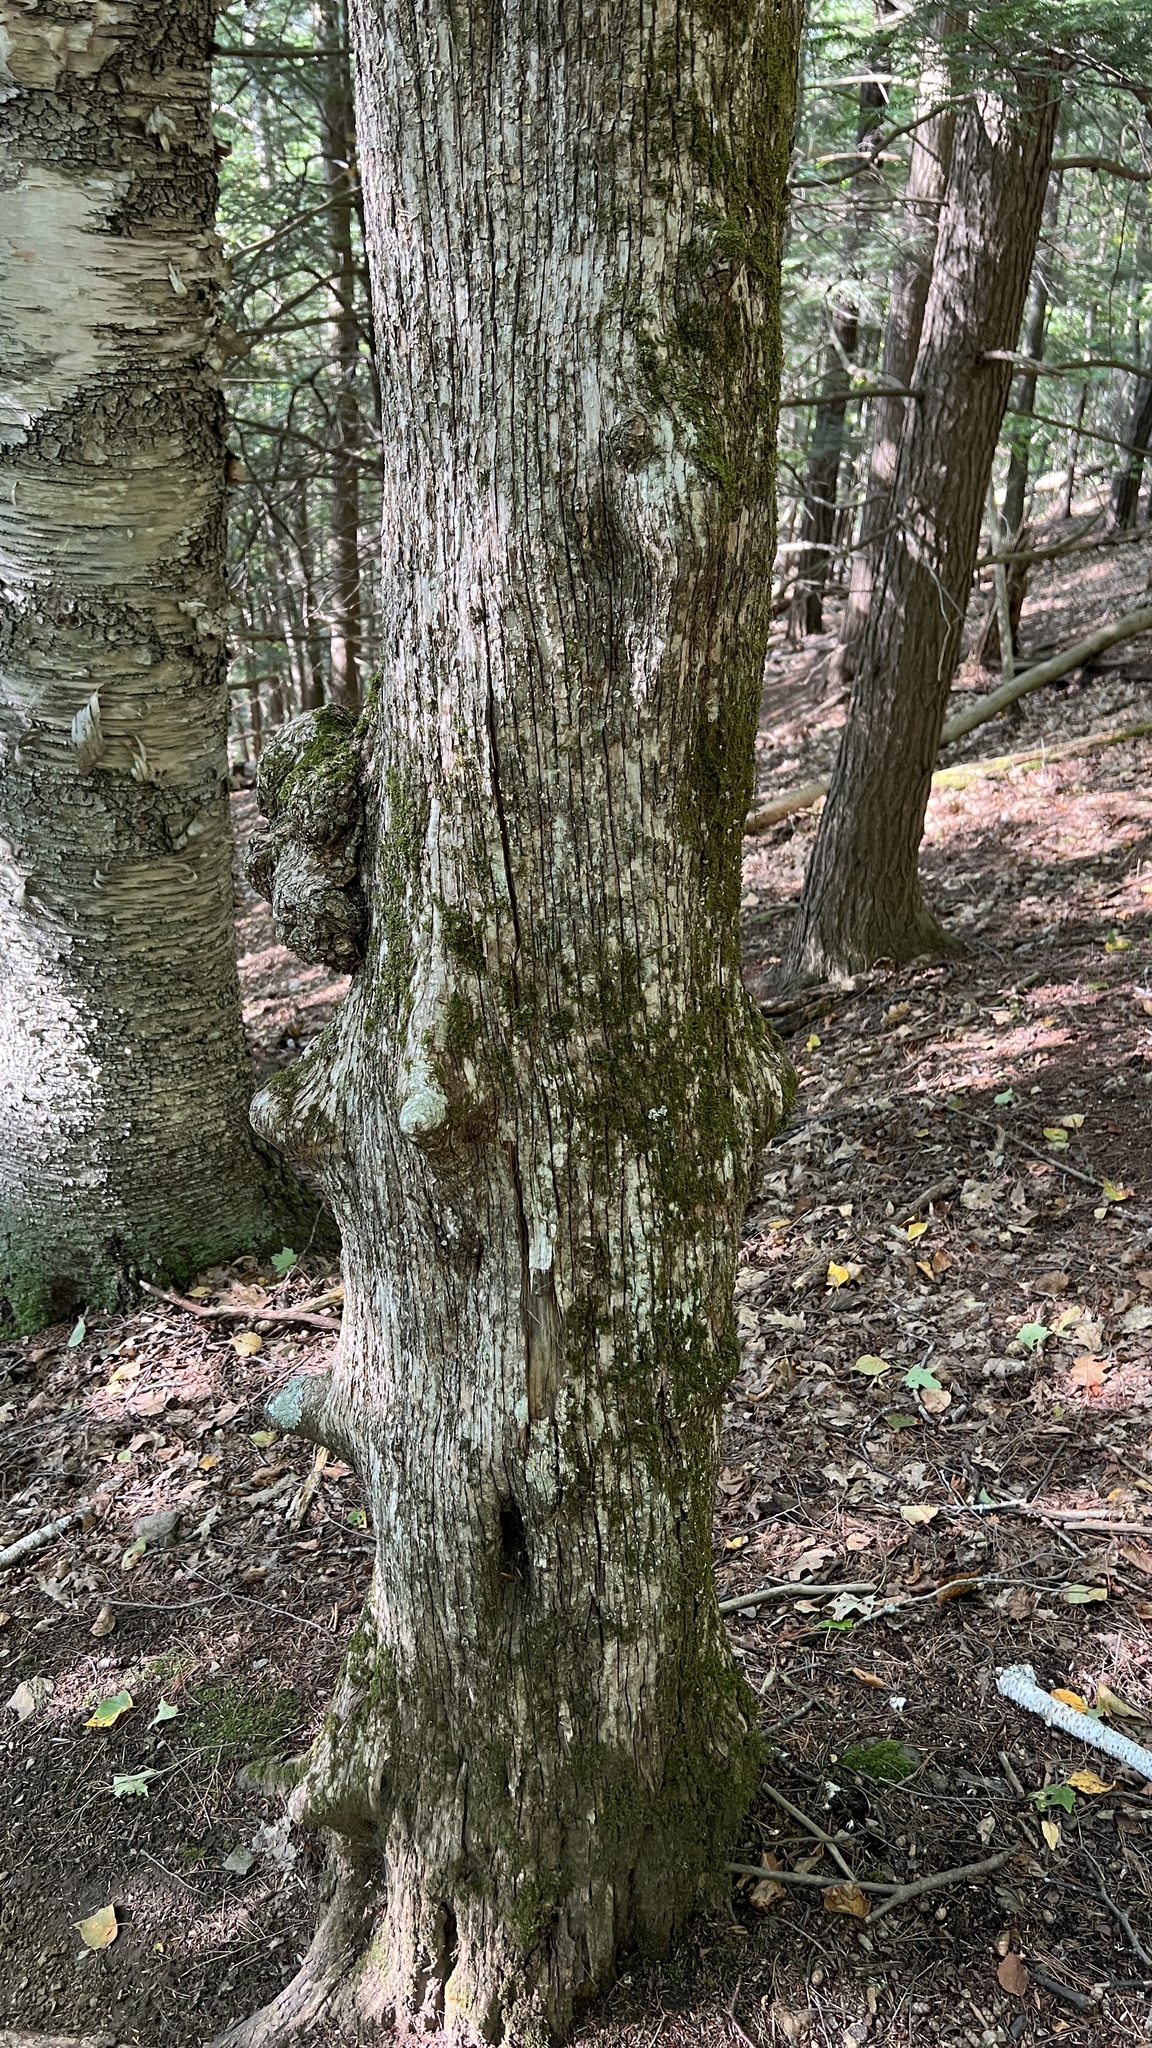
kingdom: Plantae
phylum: Tracheophyta
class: Magnoliopsida
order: Fagales
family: Betulaceae
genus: Ostrya
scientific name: Ostrya virginiana
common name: Ironwood
